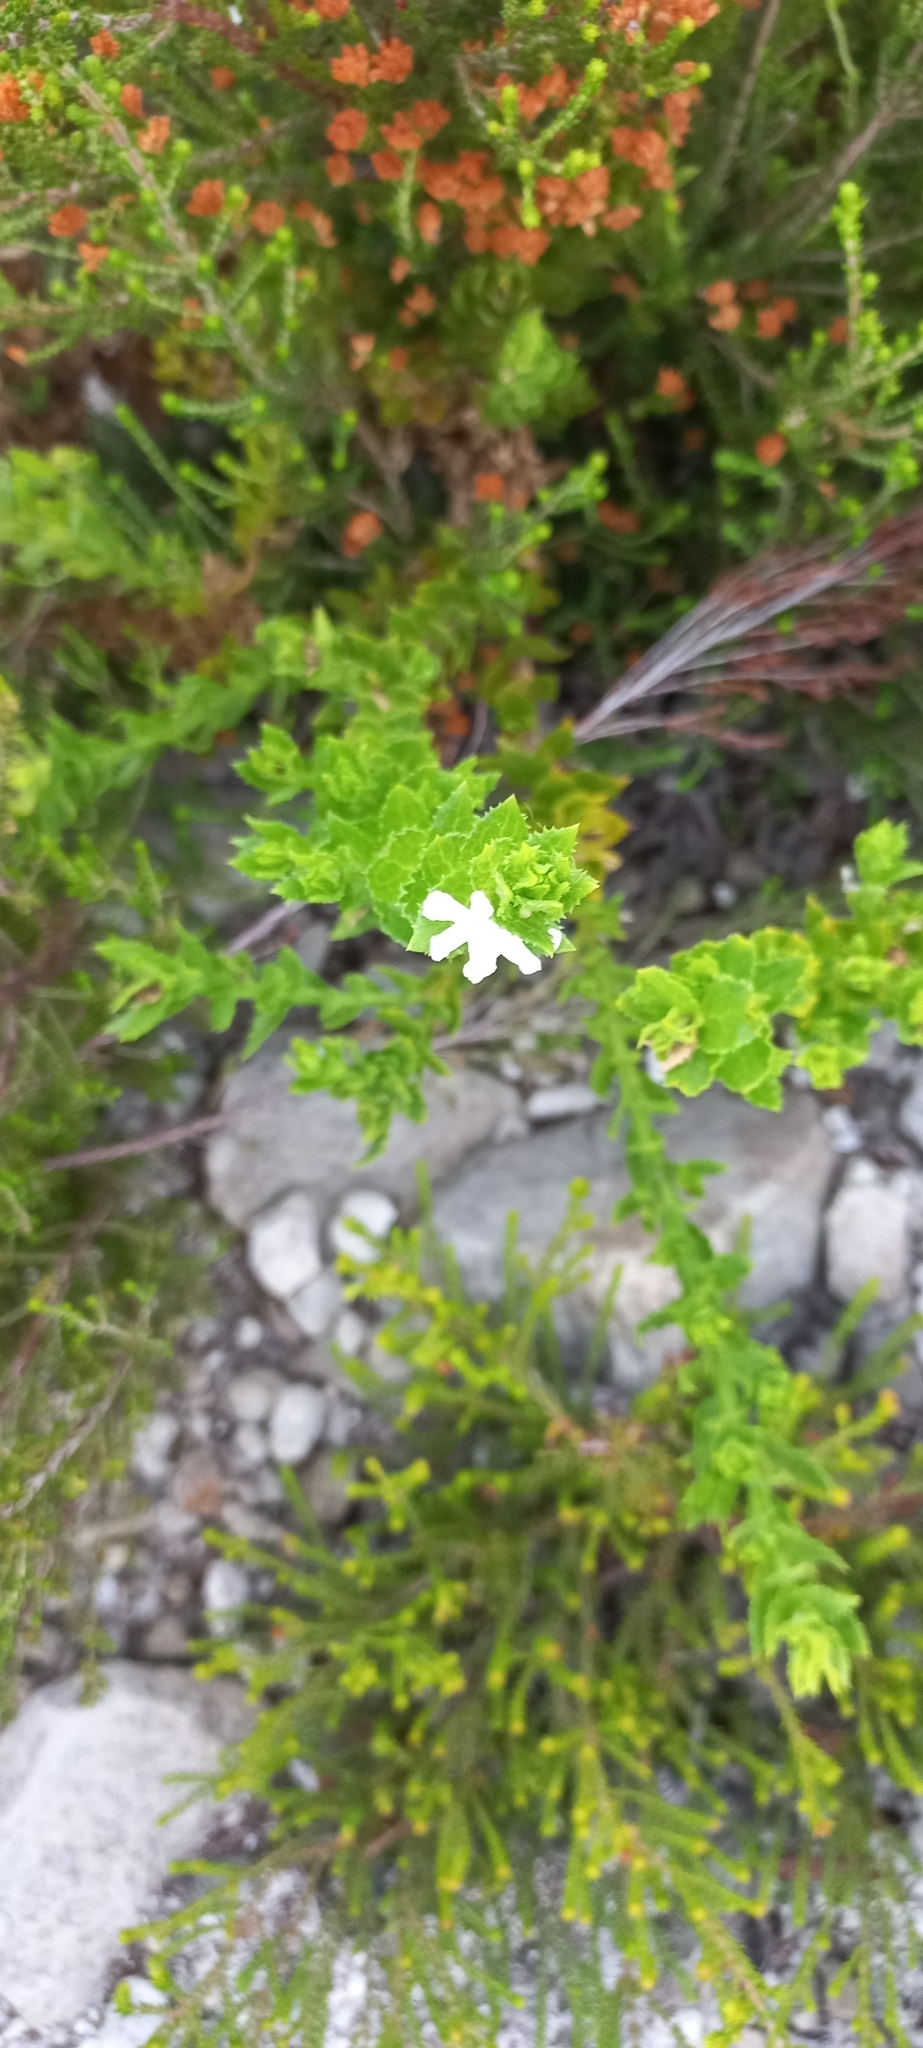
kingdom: Plantae
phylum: Tracheophyta
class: Magnoliopsida
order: Lamiales
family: Scrophulariaceae
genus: Oftia
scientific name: Oftia africana
